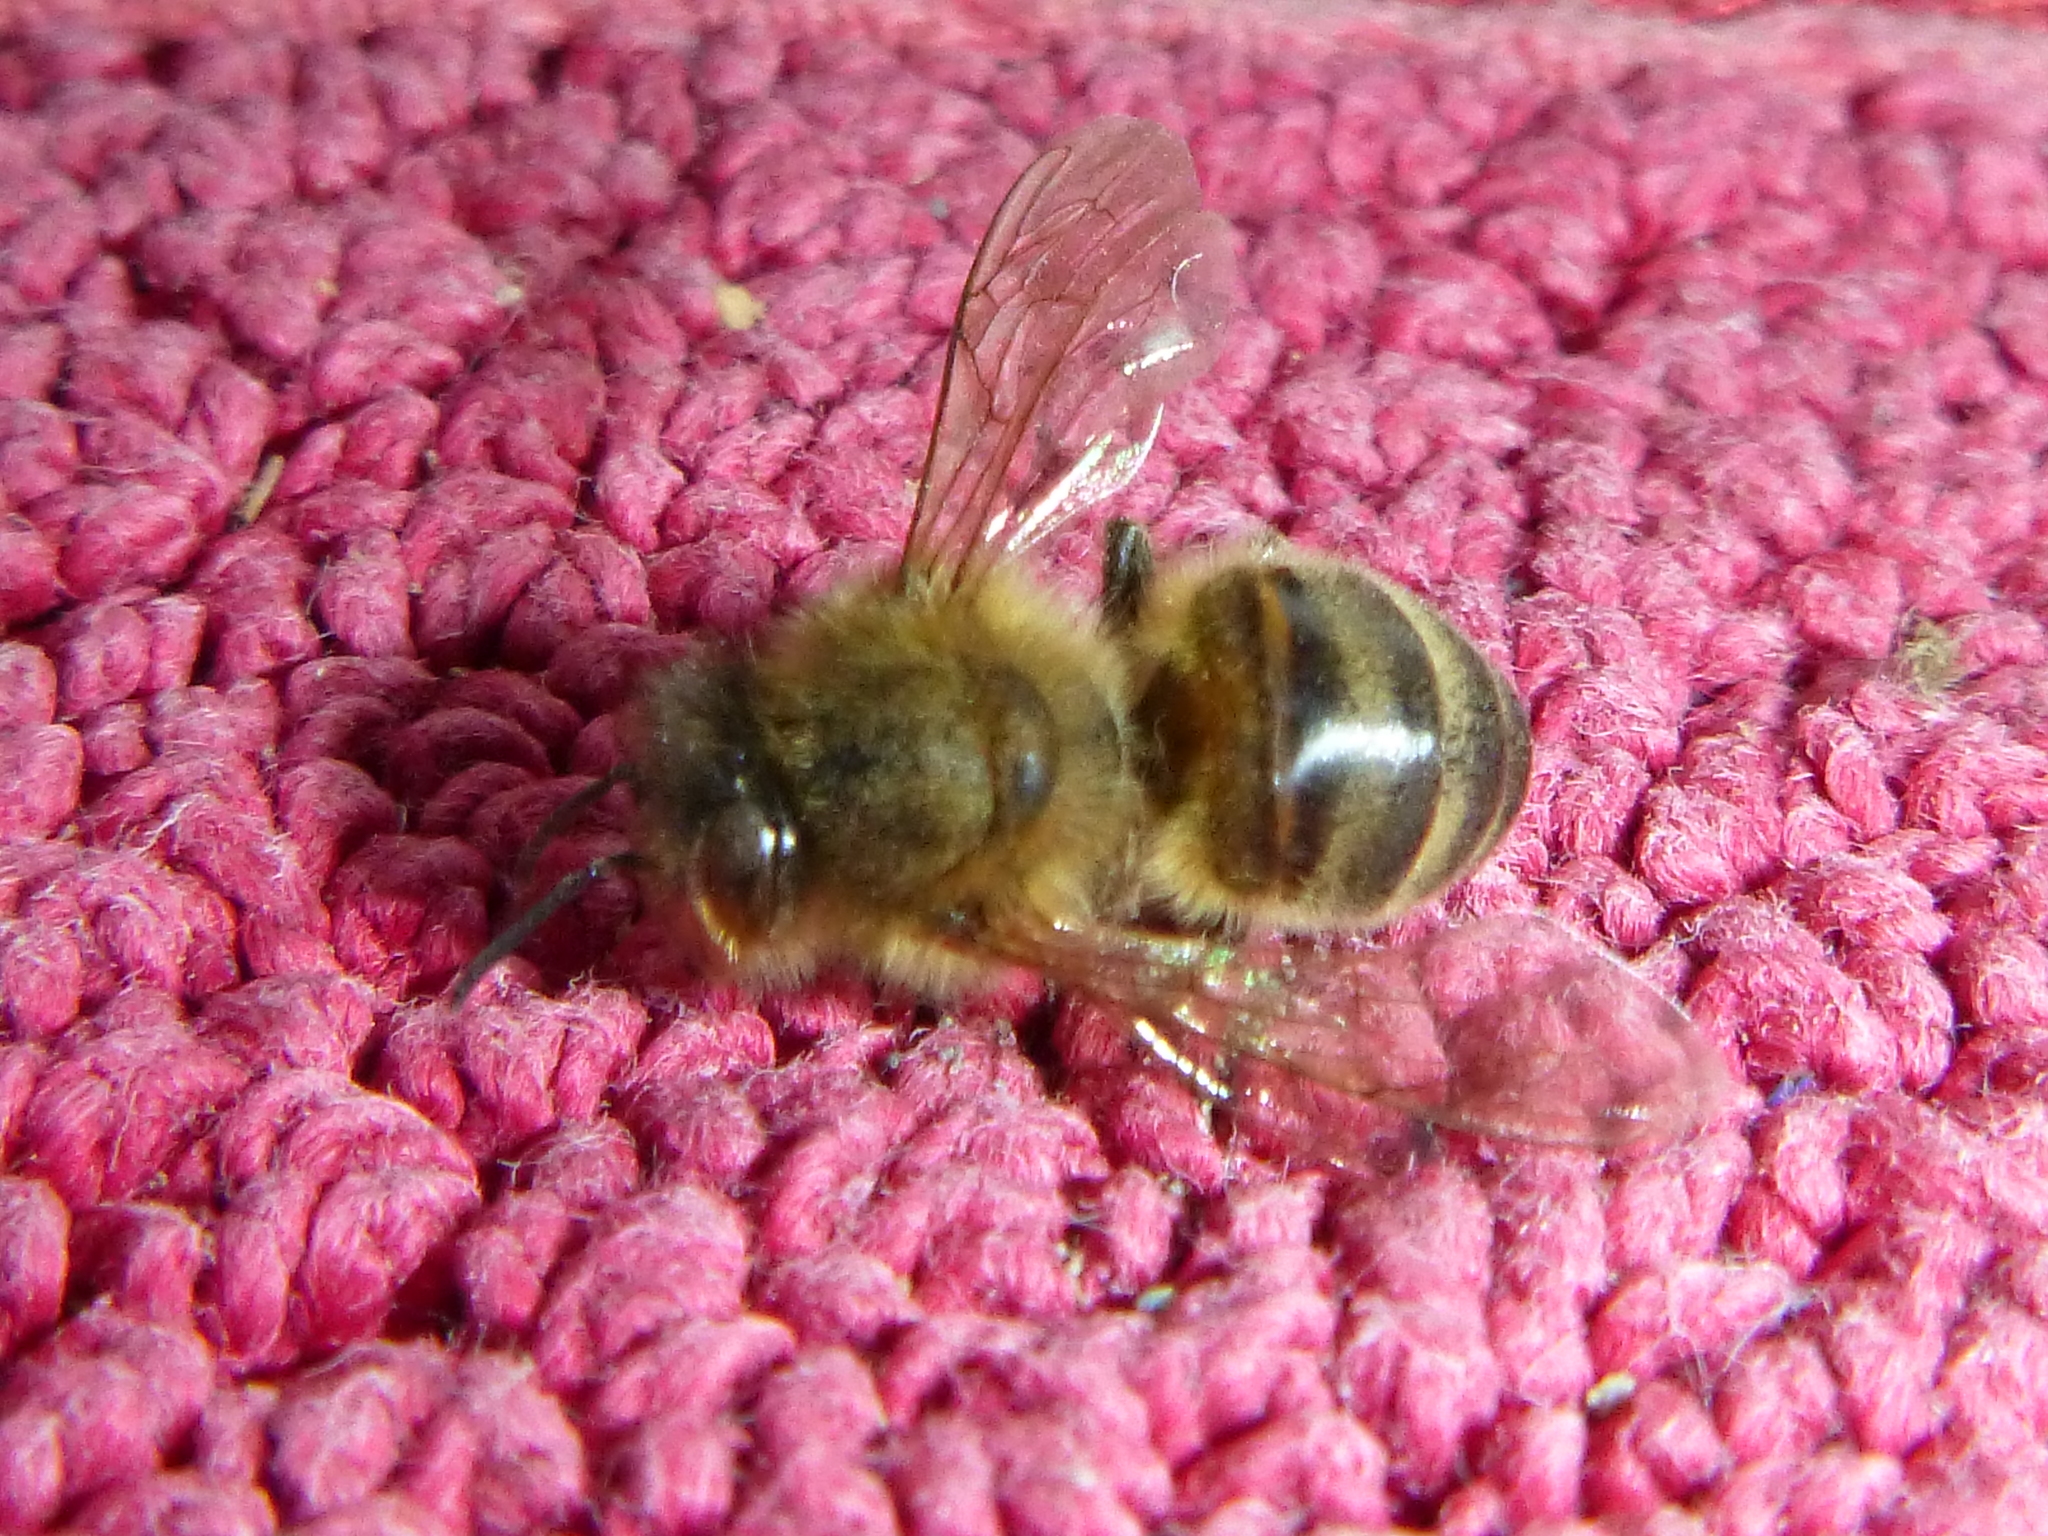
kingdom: Animalia
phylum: Arthropoda
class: Insecta
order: Hymenoptera
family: Apidae
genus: Apis
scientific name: Apis mellifera
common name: Honey bee
